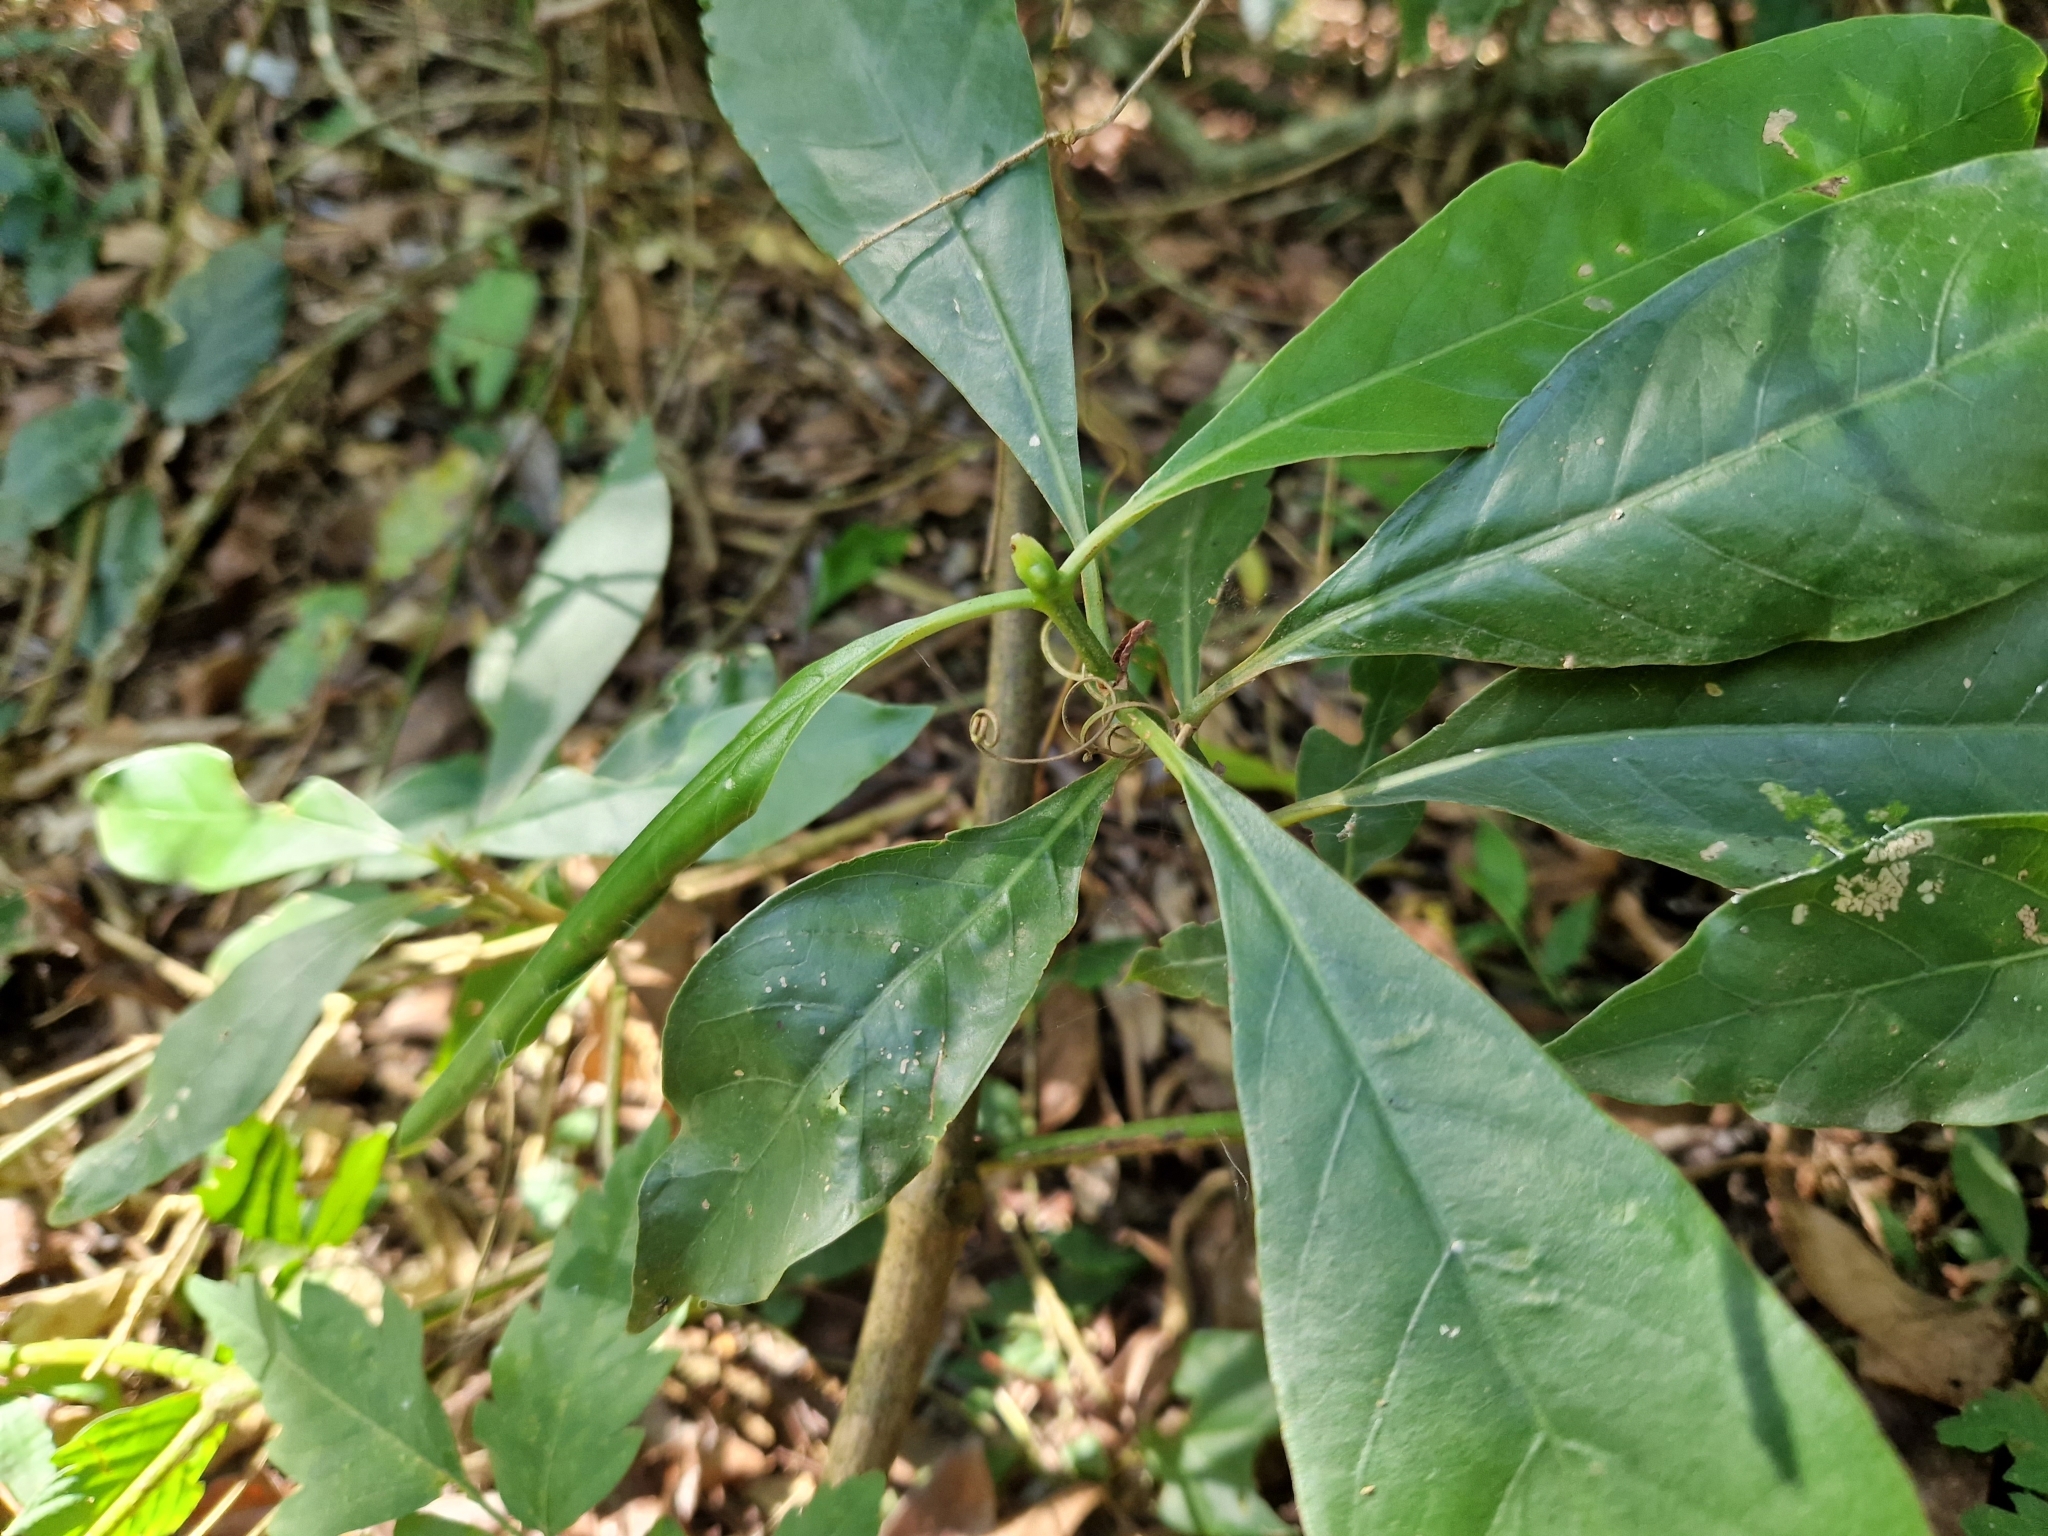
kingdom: Plantae
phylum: Tracheophyta
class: Magnoliopsida
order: Gentianales
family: Rubiaceae
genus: Psychotria
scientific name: Psychotria carthagenensis
